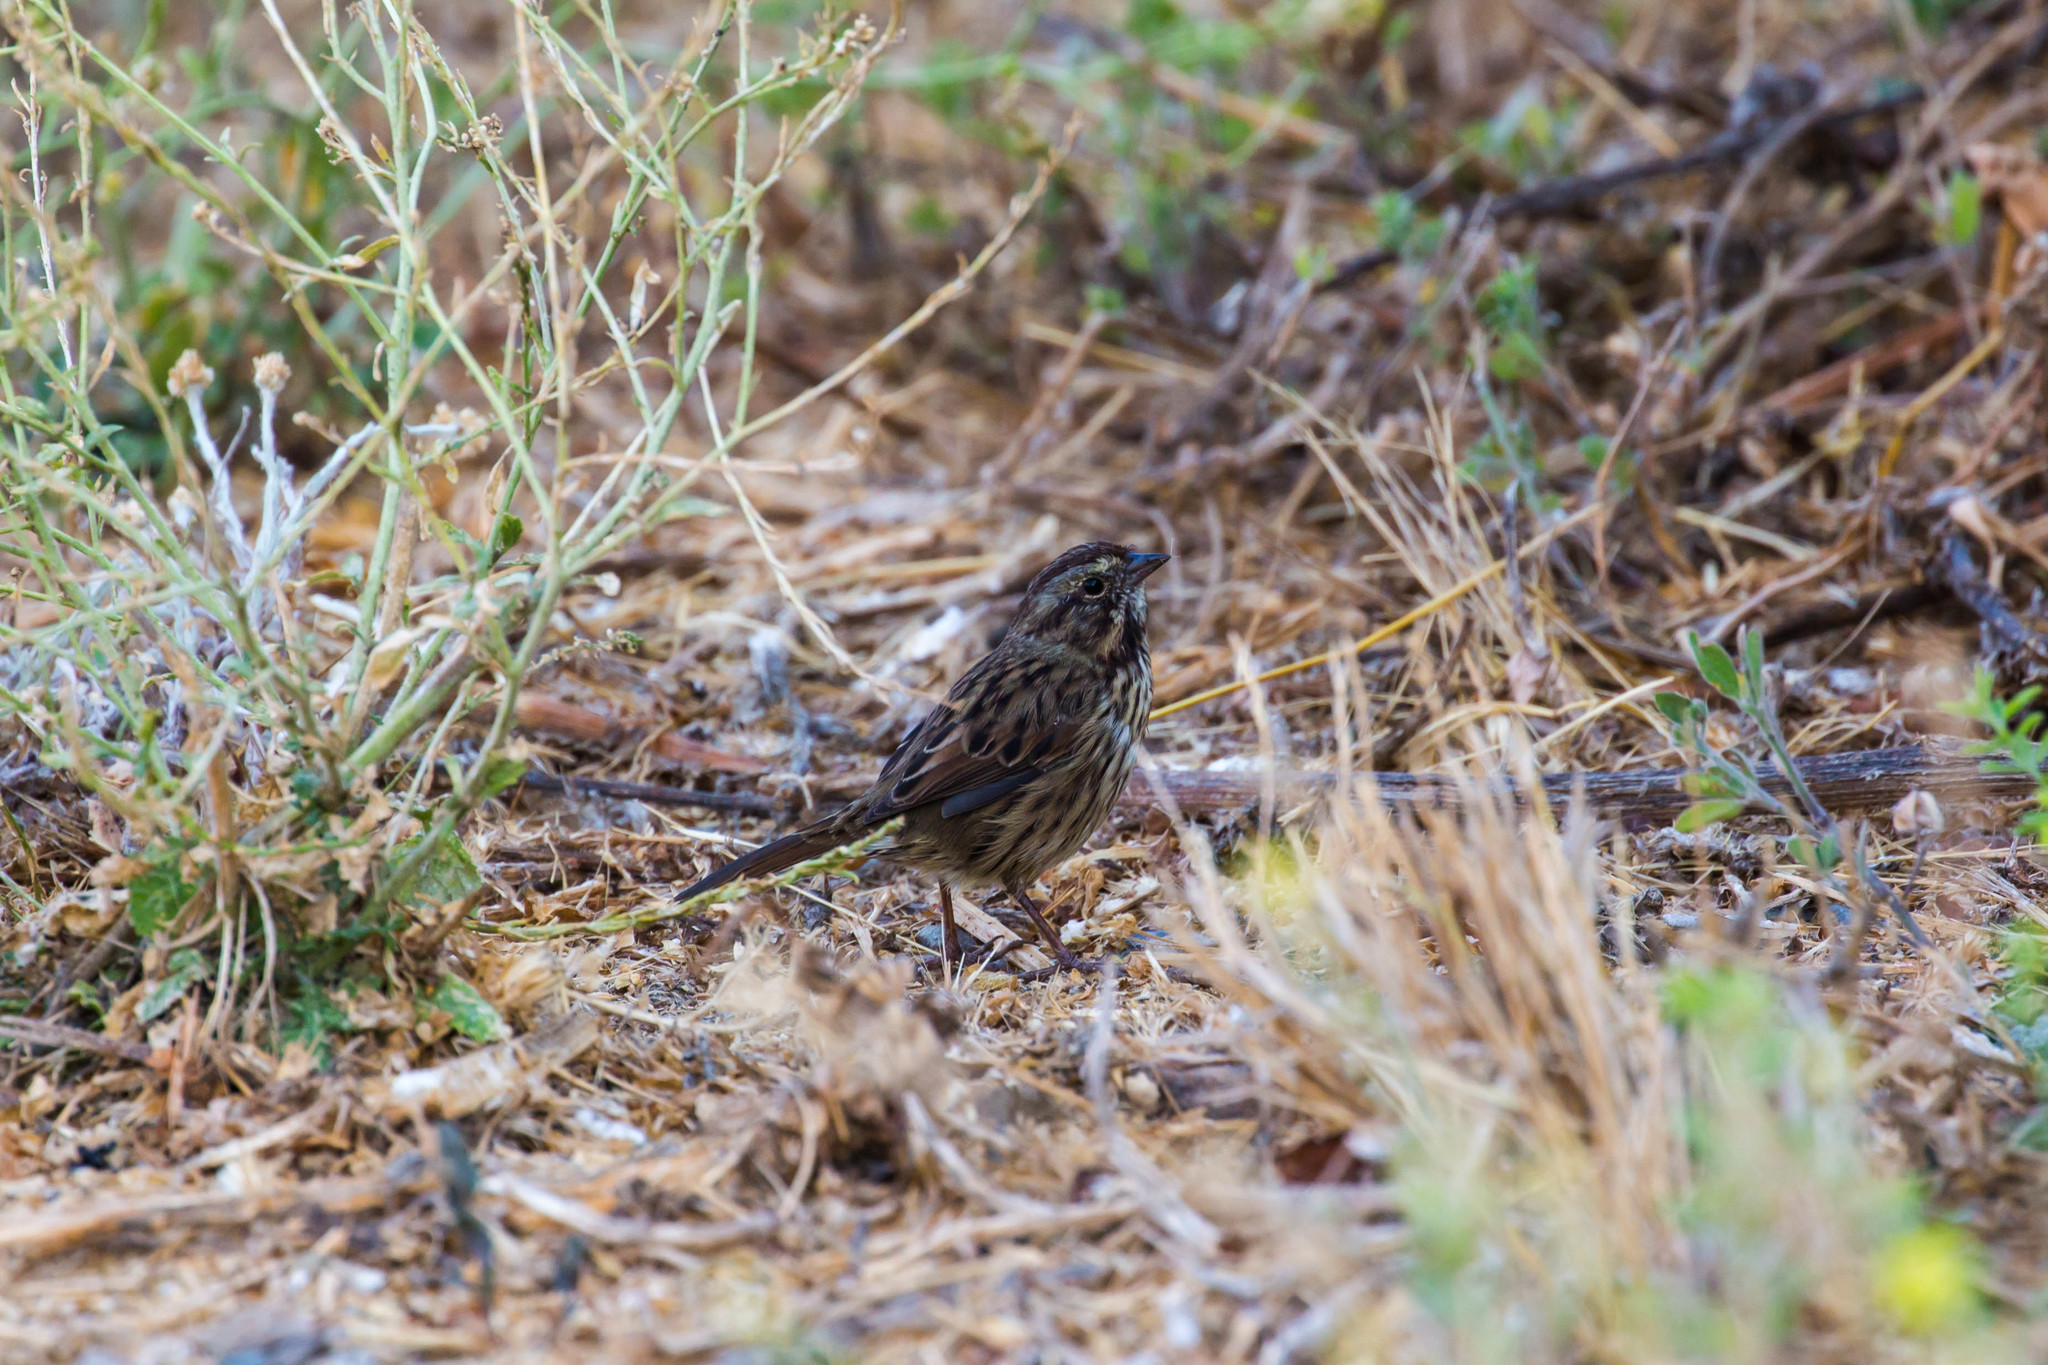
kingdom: Animalia
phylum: Chordata
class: Aves
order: Passeriformes
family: Passerellidae
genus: Melospiza
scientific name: Melospiza melodia
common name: Song sparrow
